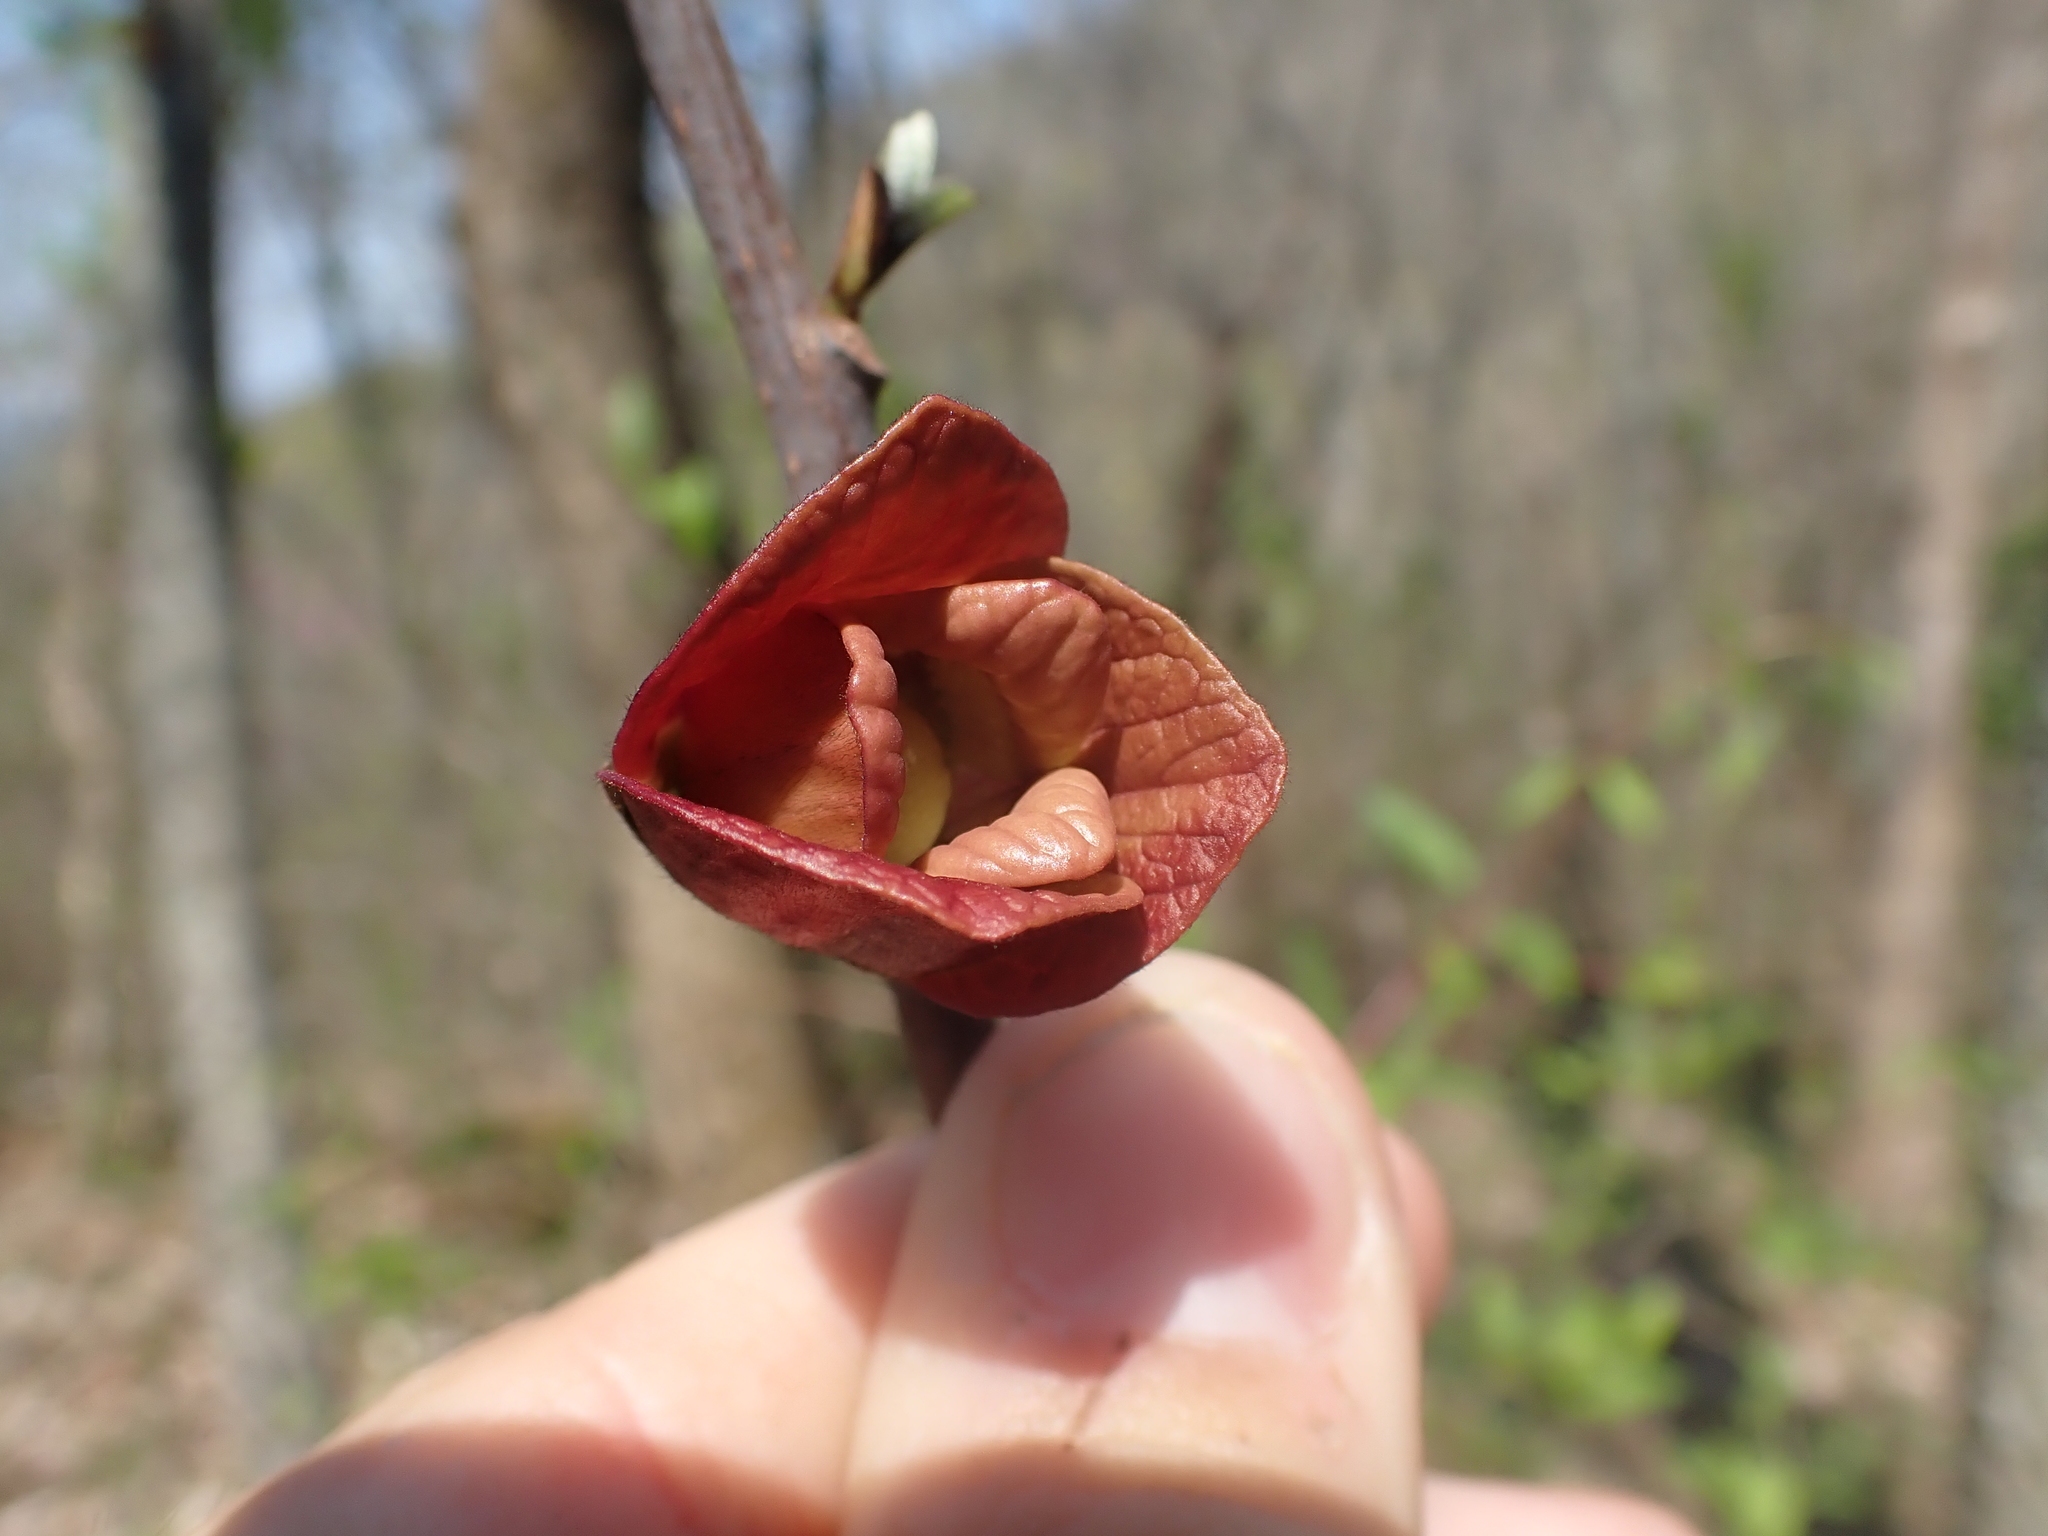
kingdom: Plantae
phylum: Tracheophyta
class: Magnoliopsida
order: Magnoliales
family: Annonaceae
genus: Asimina
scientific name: Asimina triloba
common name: Dog-banana
